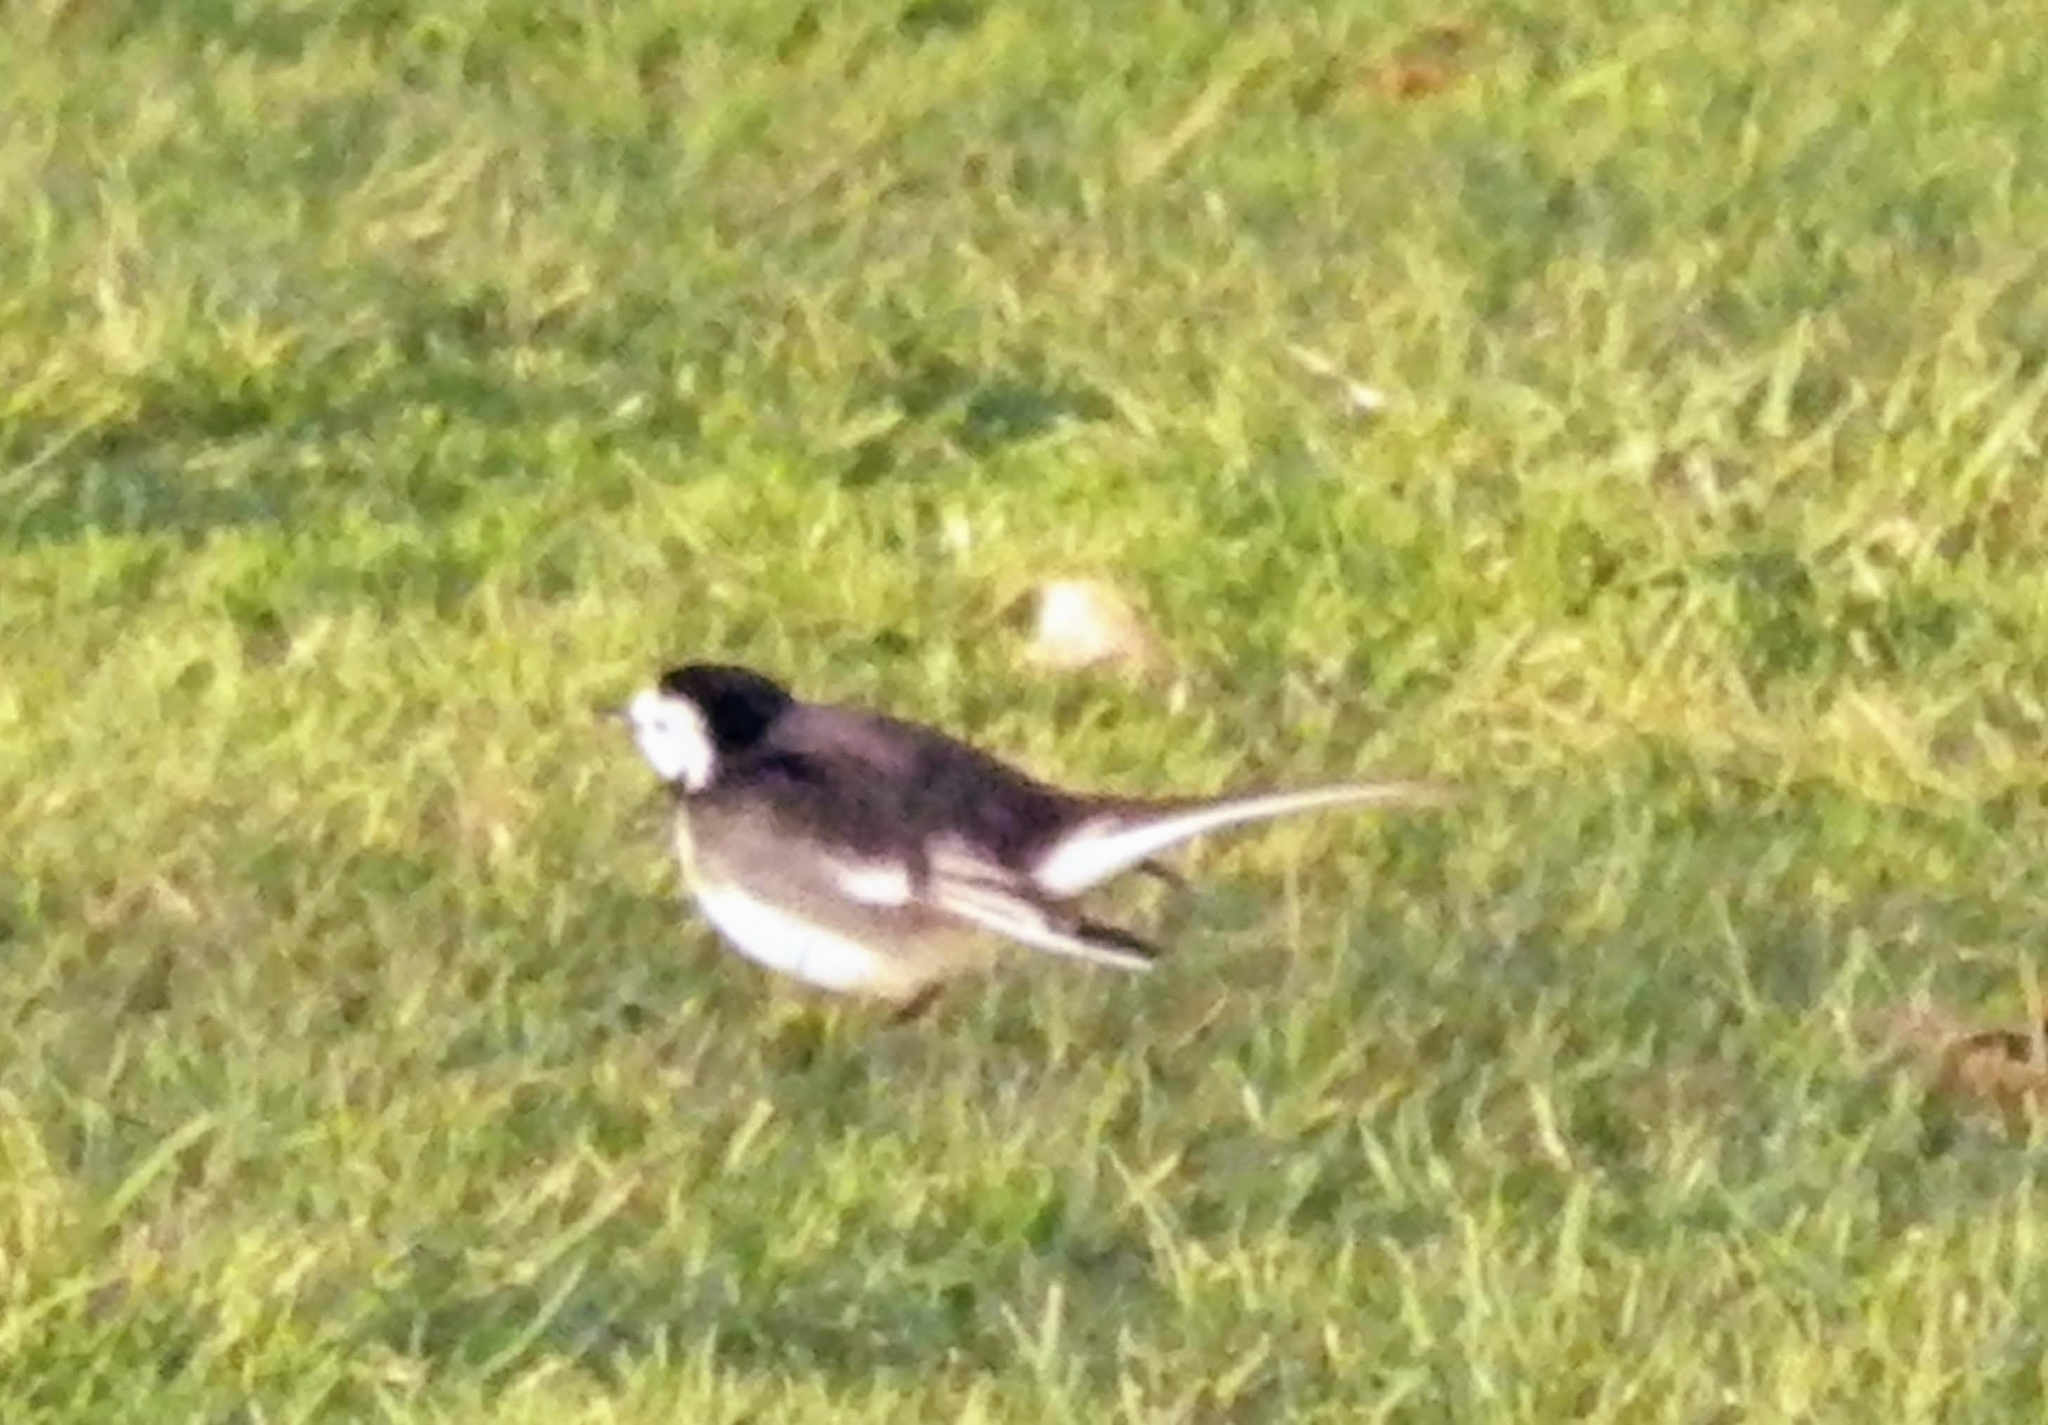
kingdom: Animalia
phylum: Chordata
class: Aves
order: Passeriformes
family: Motacillidae
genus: Motacilla
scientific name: Motacilla alba
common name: White wagtail
